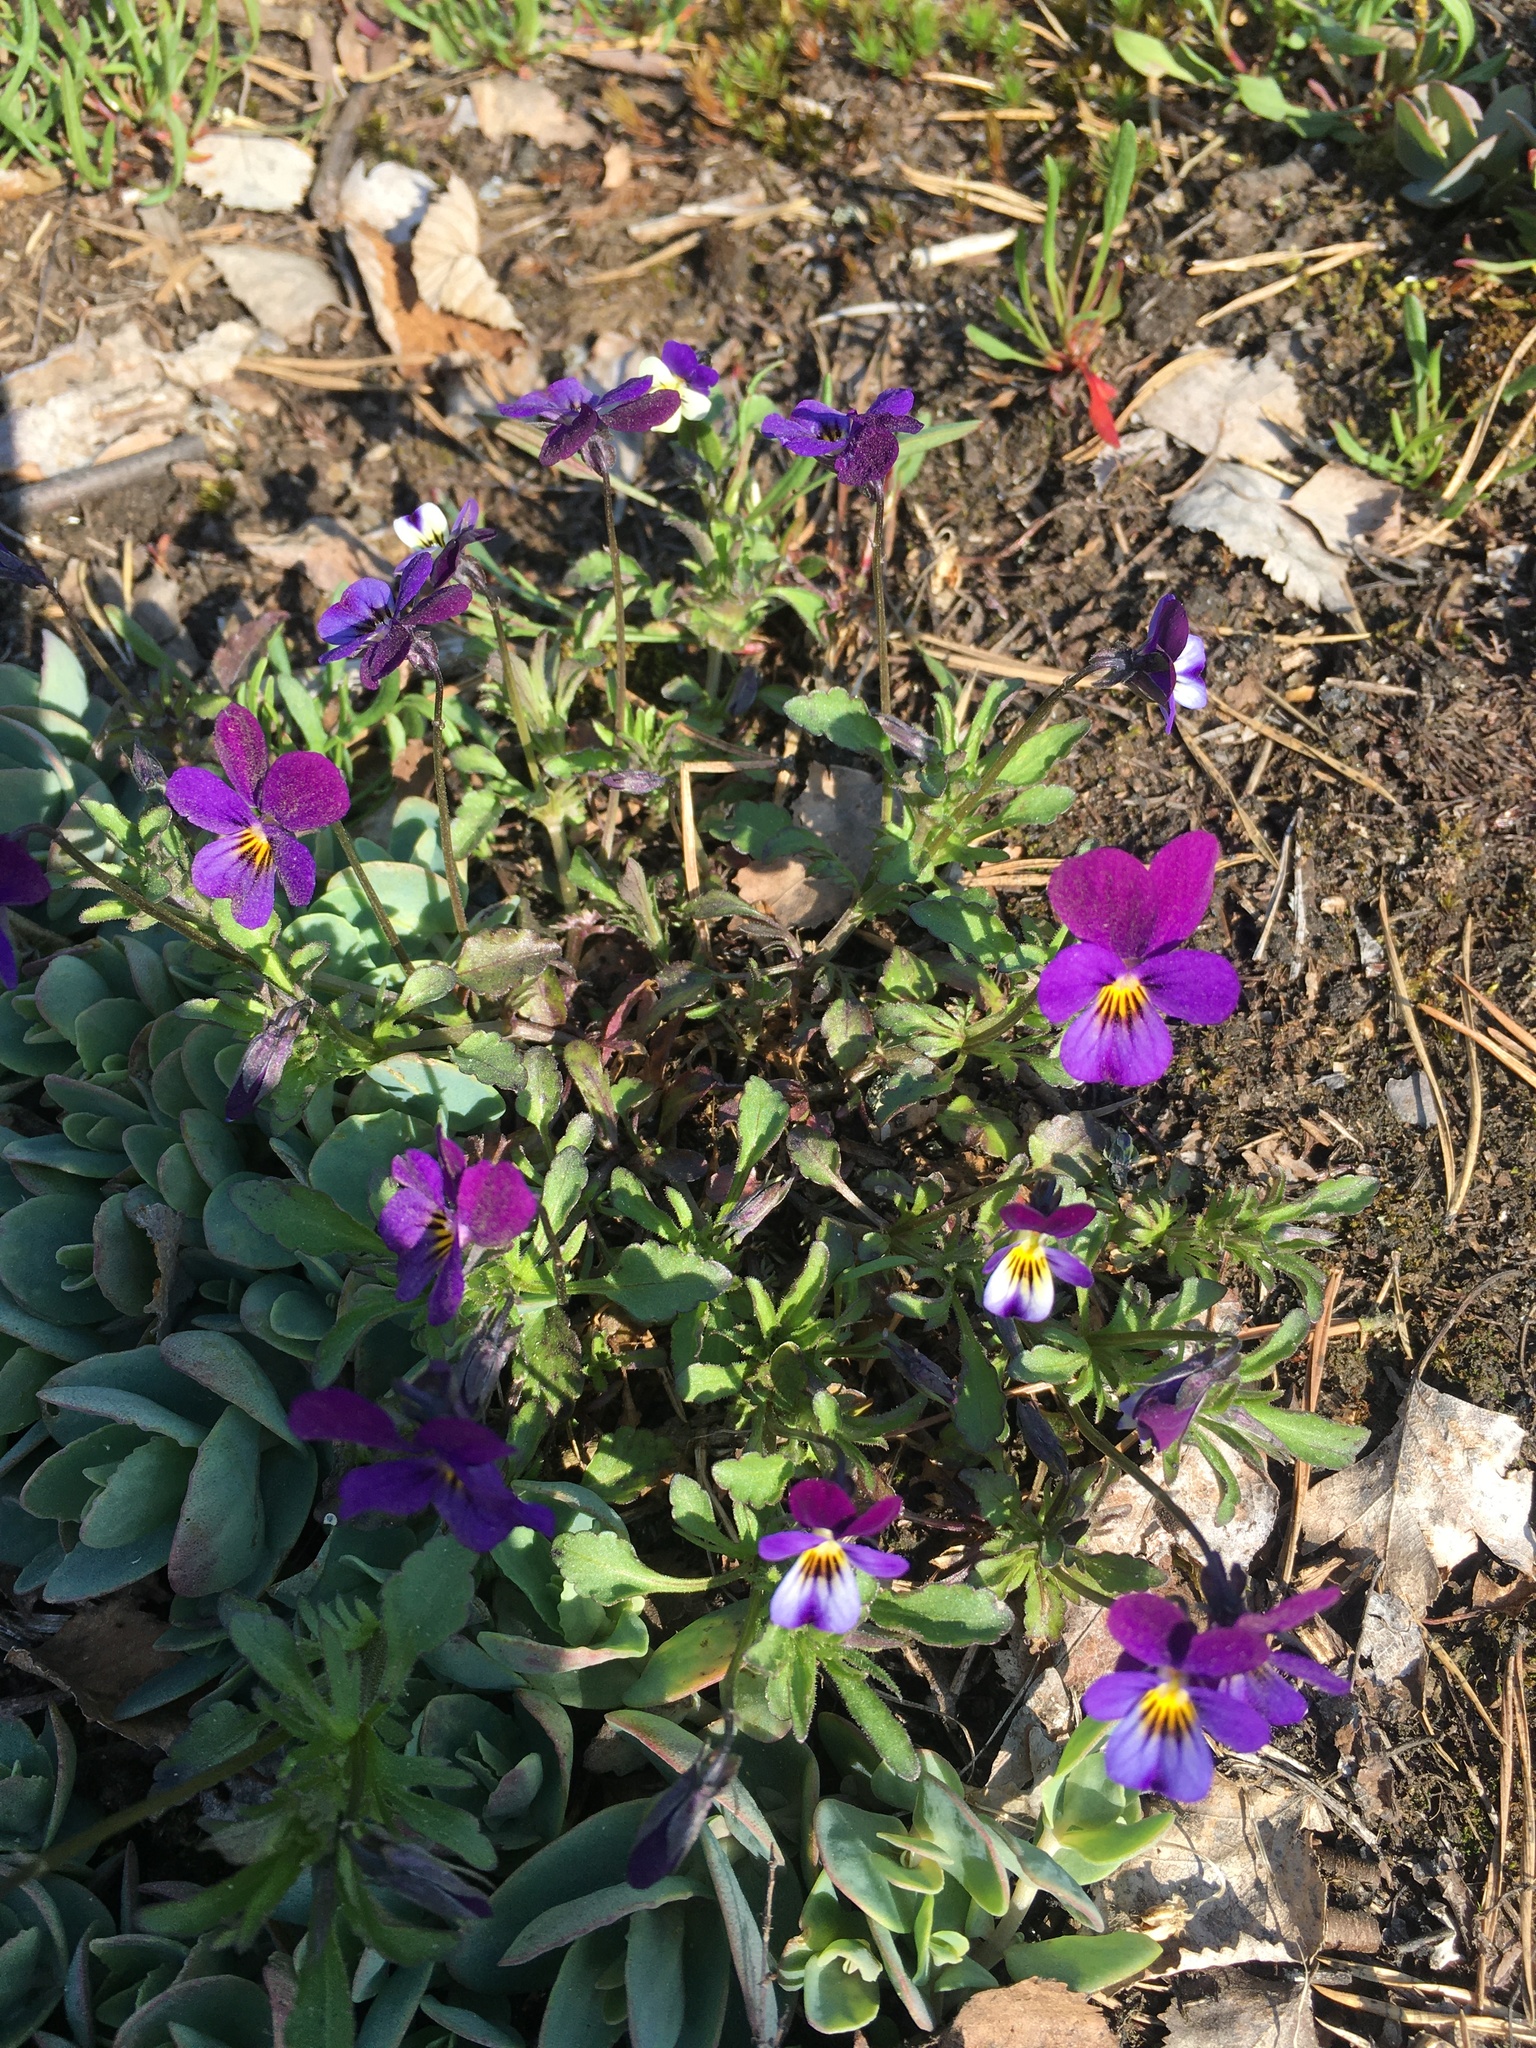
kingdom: Plantae
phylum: Tracheophyta
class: Magnoliopsida
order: Malpighiales
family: Violaceae
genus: Viola
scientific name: Viola tricolor
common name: Pansy
